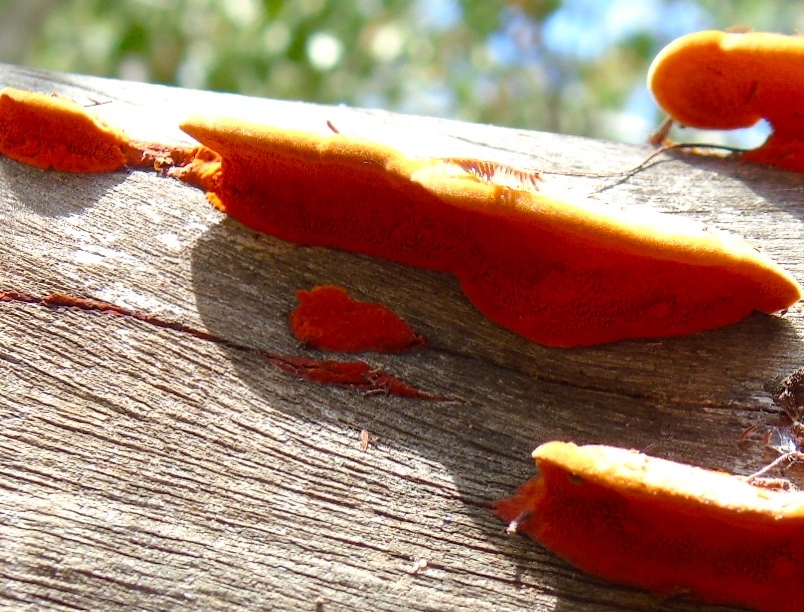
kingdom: Fungi
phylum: Basidiomycota
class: Agaricomycetes
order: Polyporales
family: Polyporaceae
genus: Trametes
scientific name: Trametes
